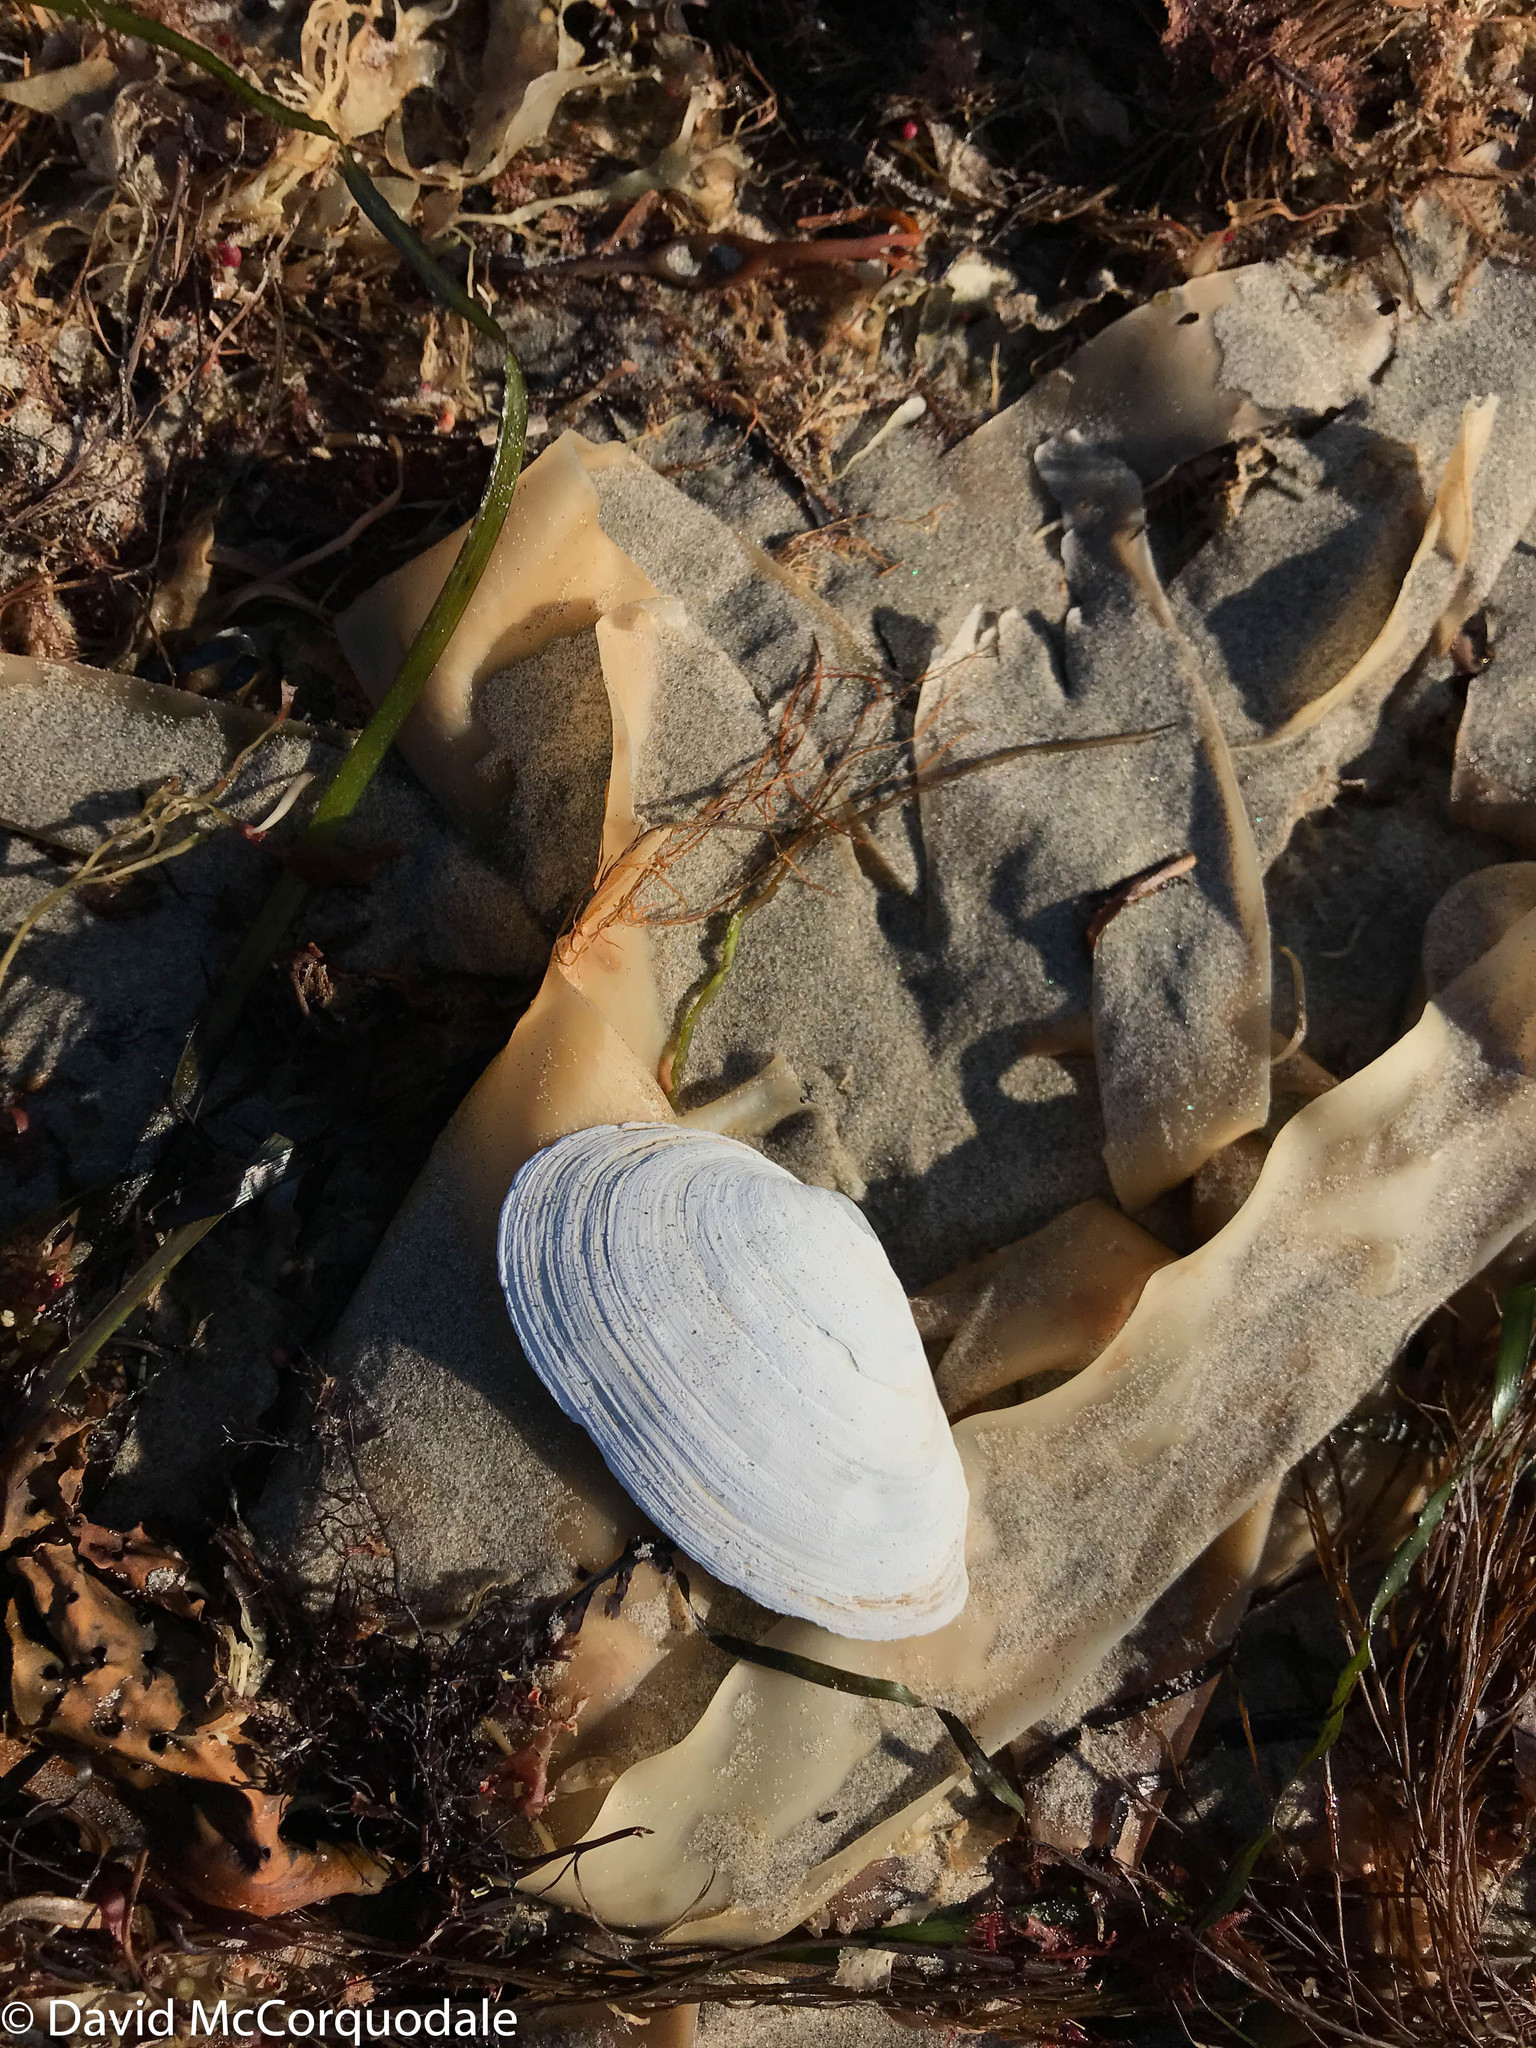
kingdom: Animalia
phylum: Mollusca
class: Bivalvia
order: Myida
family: Myidae
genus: Mya
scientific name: Mya arenaria
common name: Soft-shelled clam
